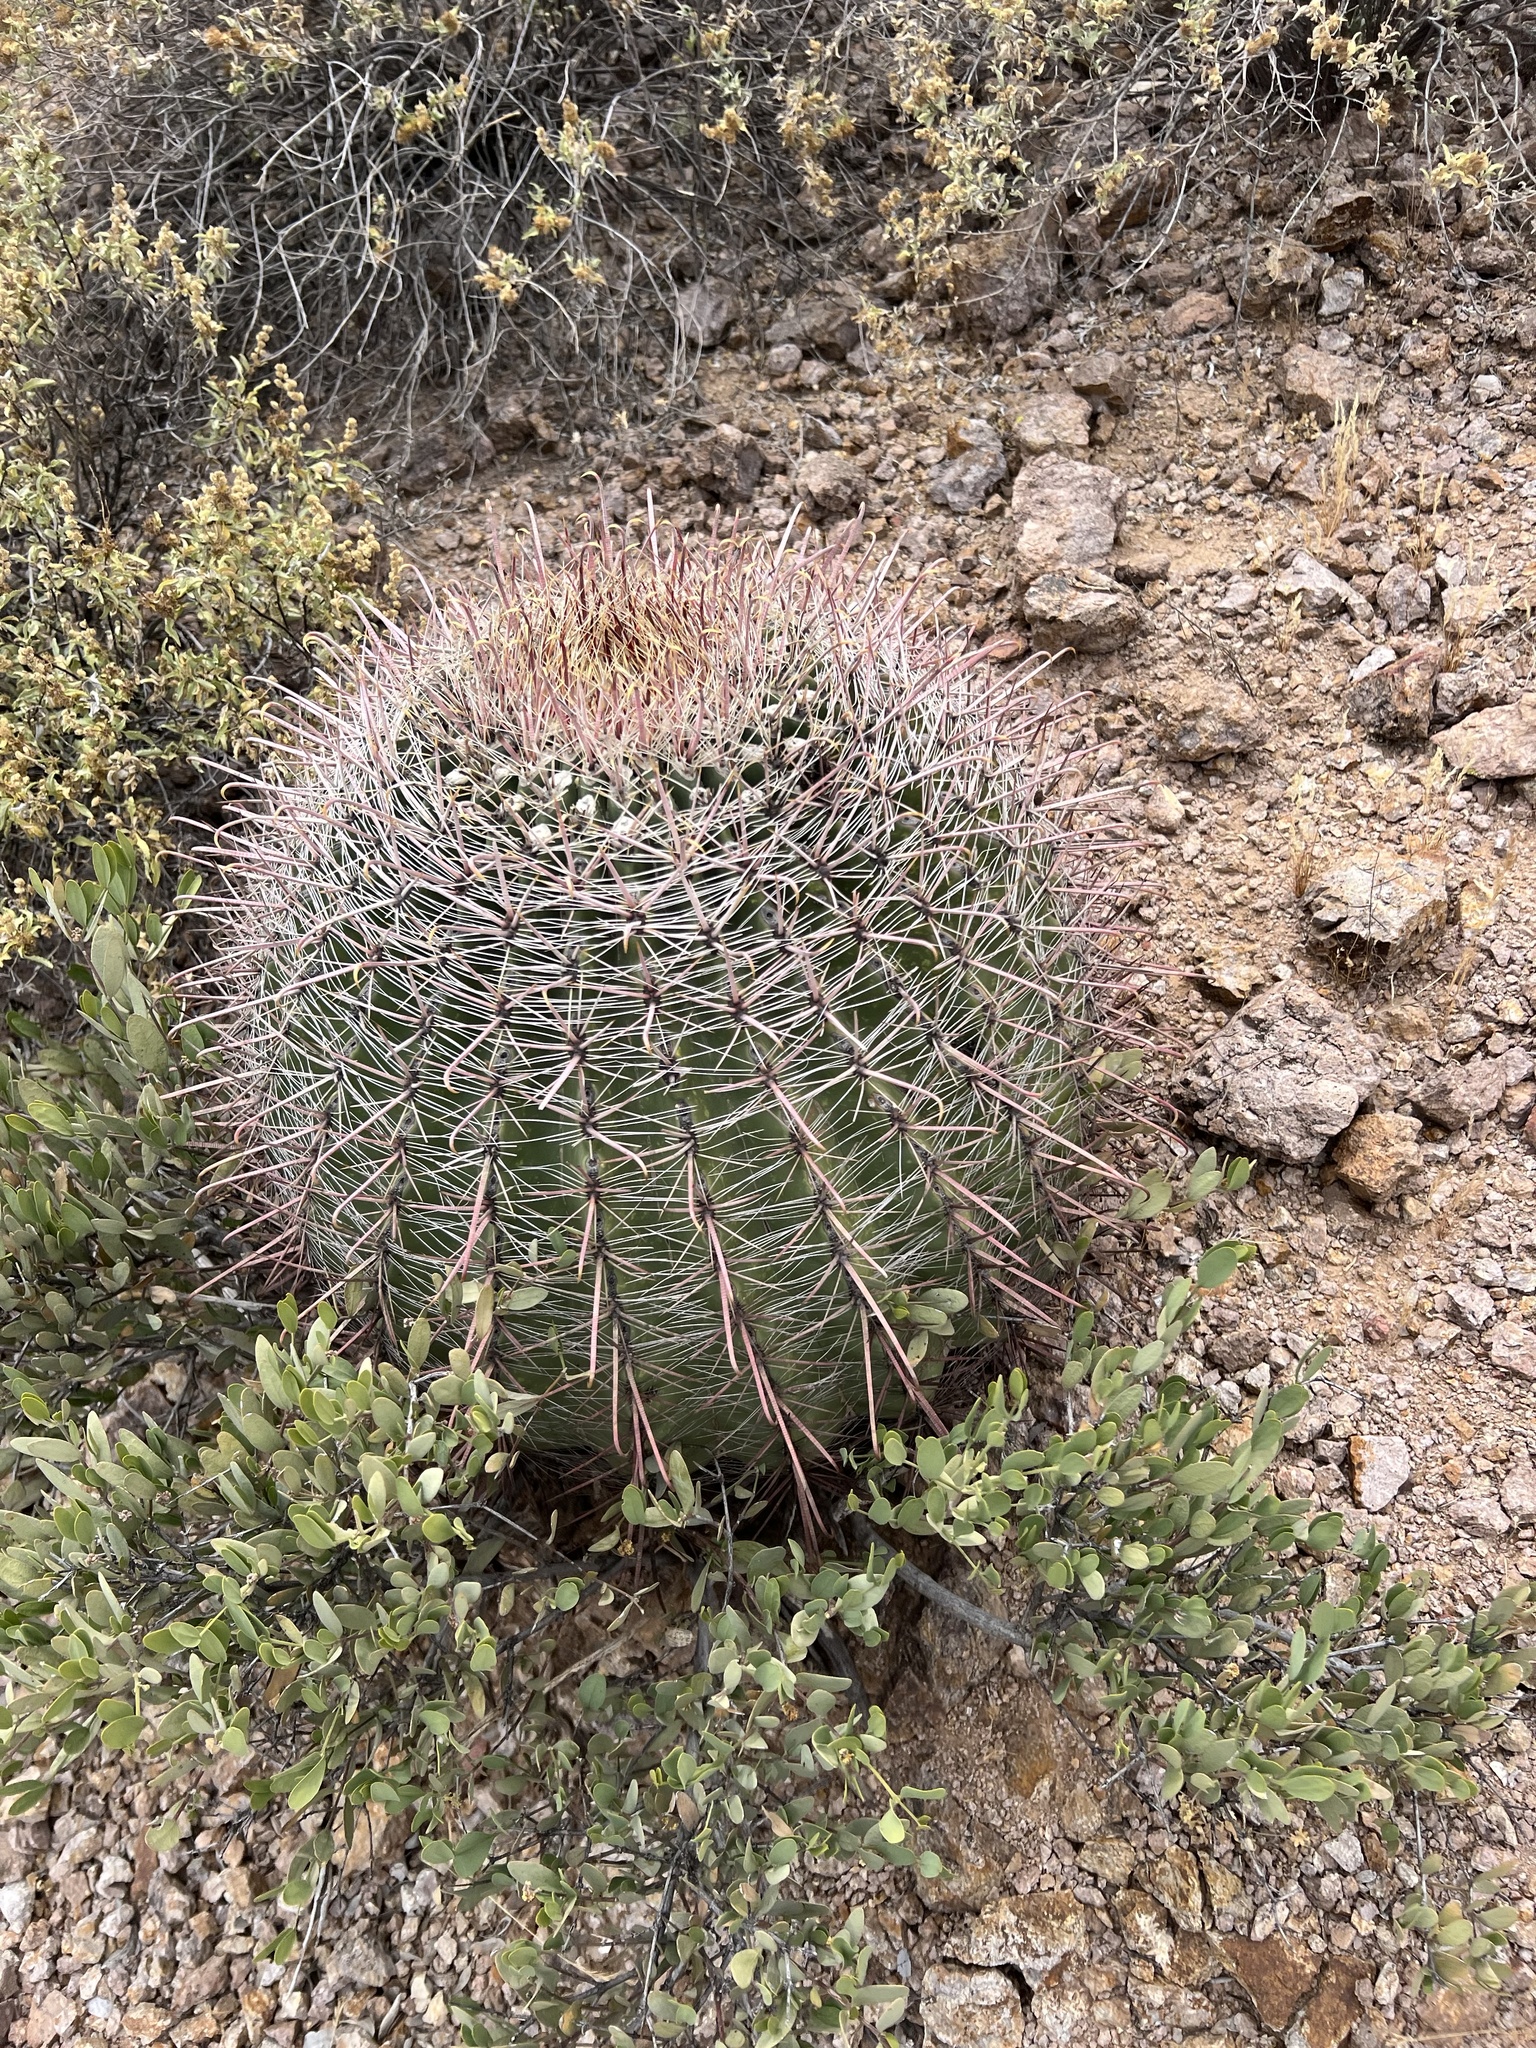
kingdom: Plantae
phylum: Tracheophyta
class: Magnoliopsida
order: Caryophyllales
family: Cactaceae
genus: Ferocactus
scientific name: Ferocactus wislizeni
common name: Candy barrel cactus
